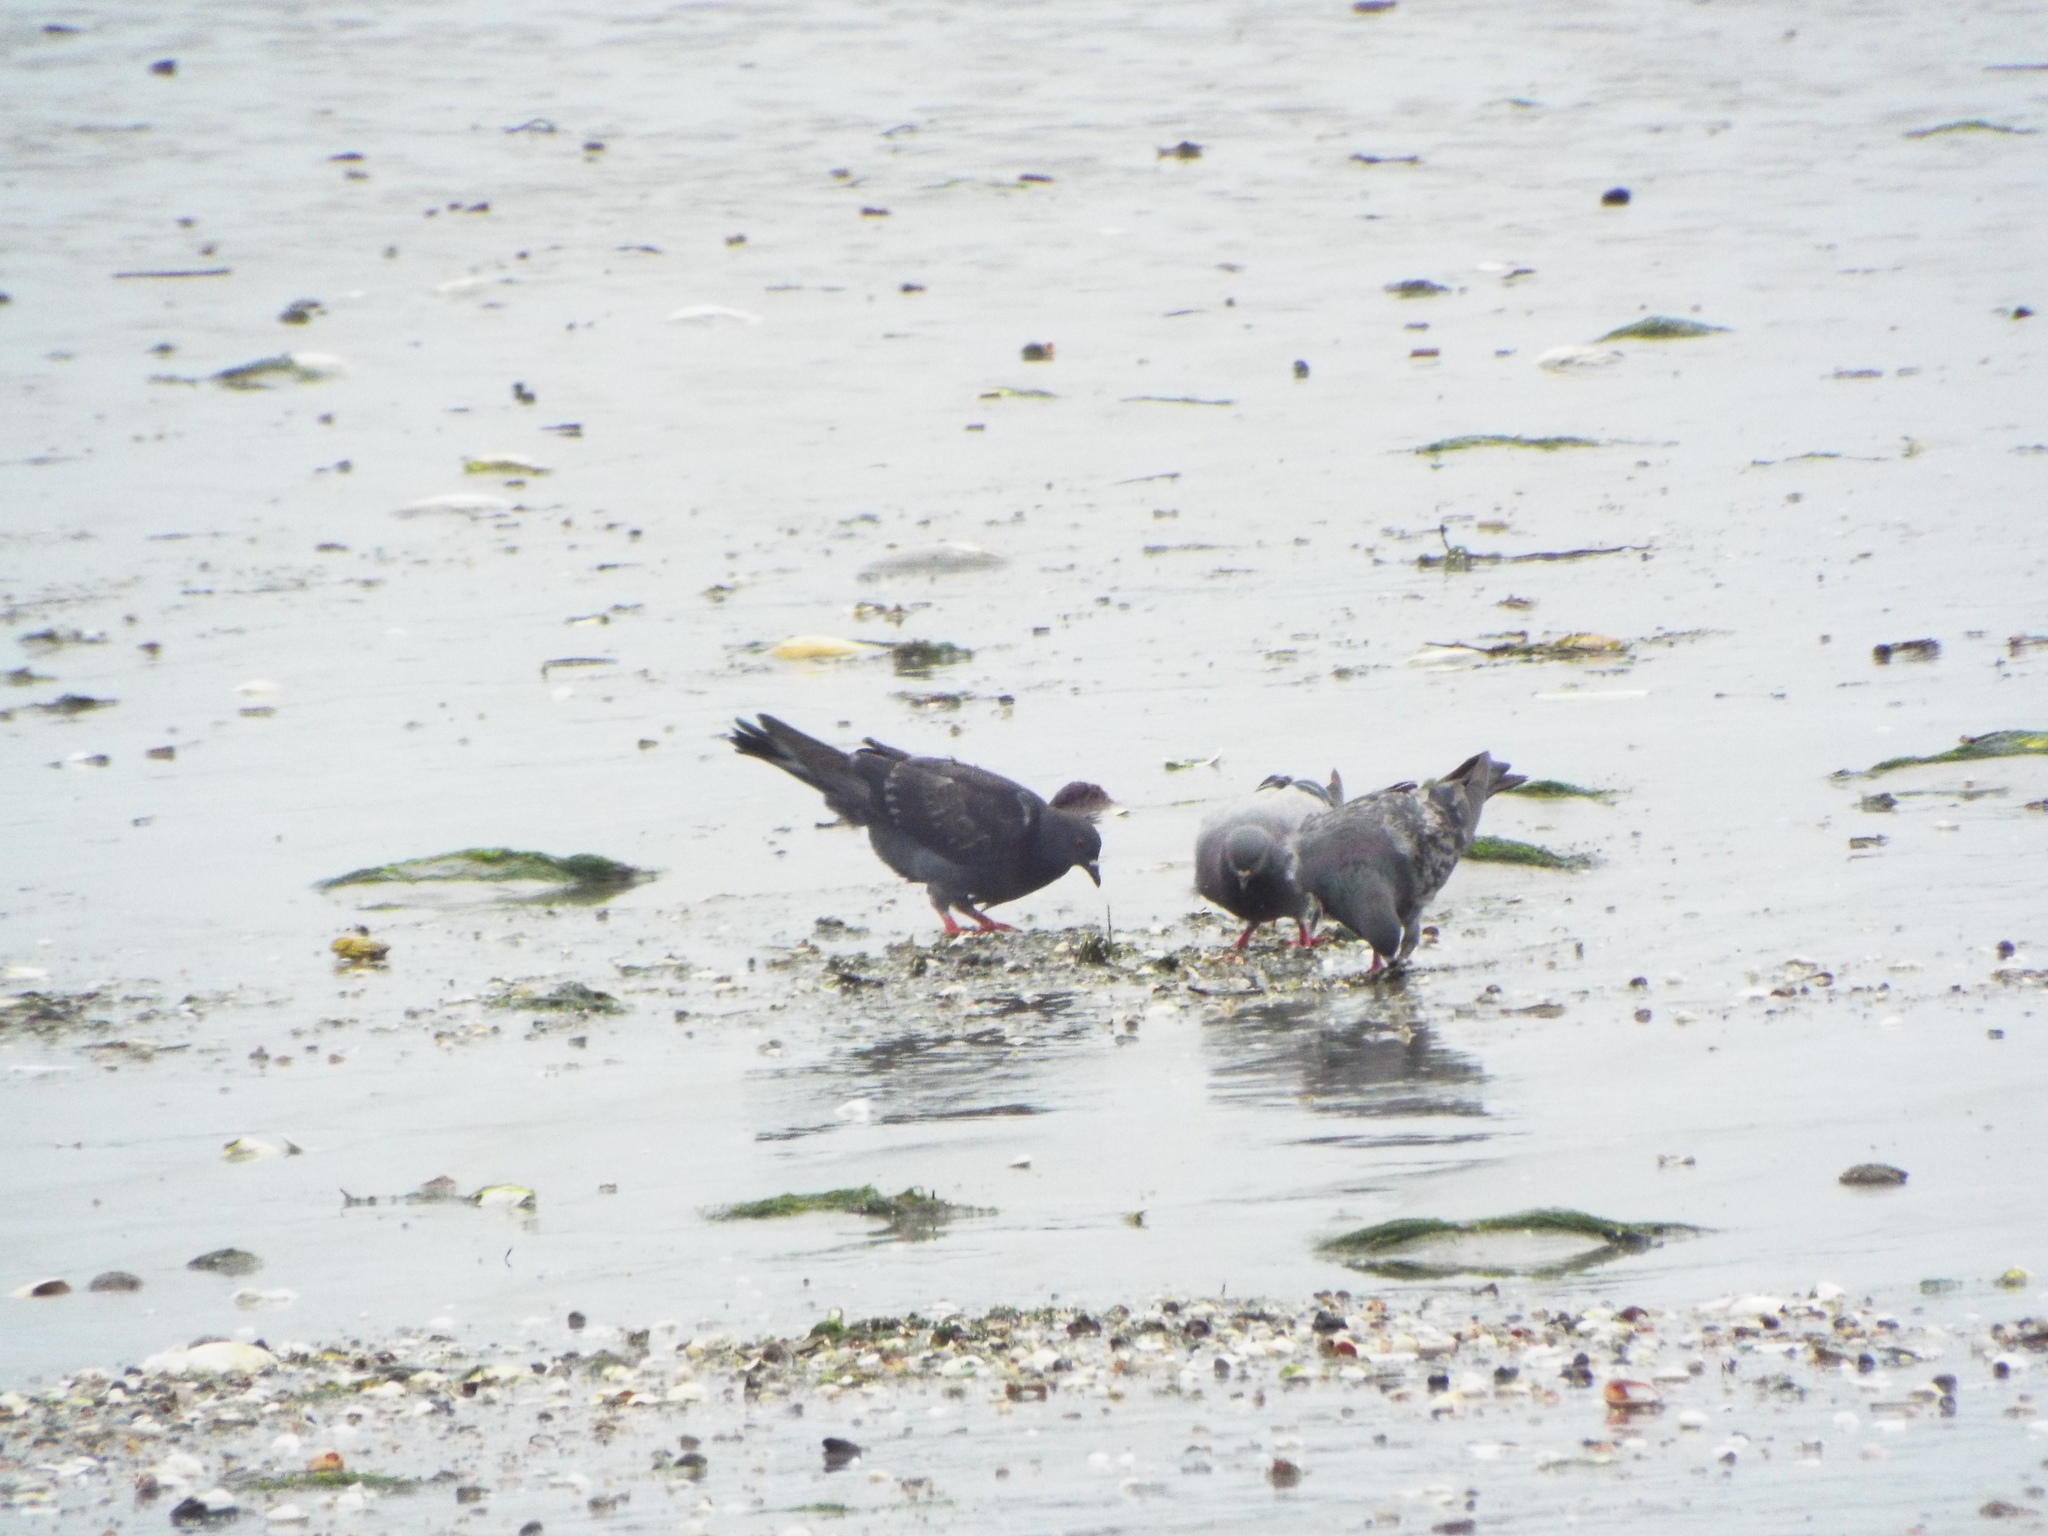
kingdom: Animalia
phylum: Chordata
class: Aves
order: Columbiformes
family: Columbidae
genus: Columba
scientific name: Columba livia
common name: Rock pigeon
